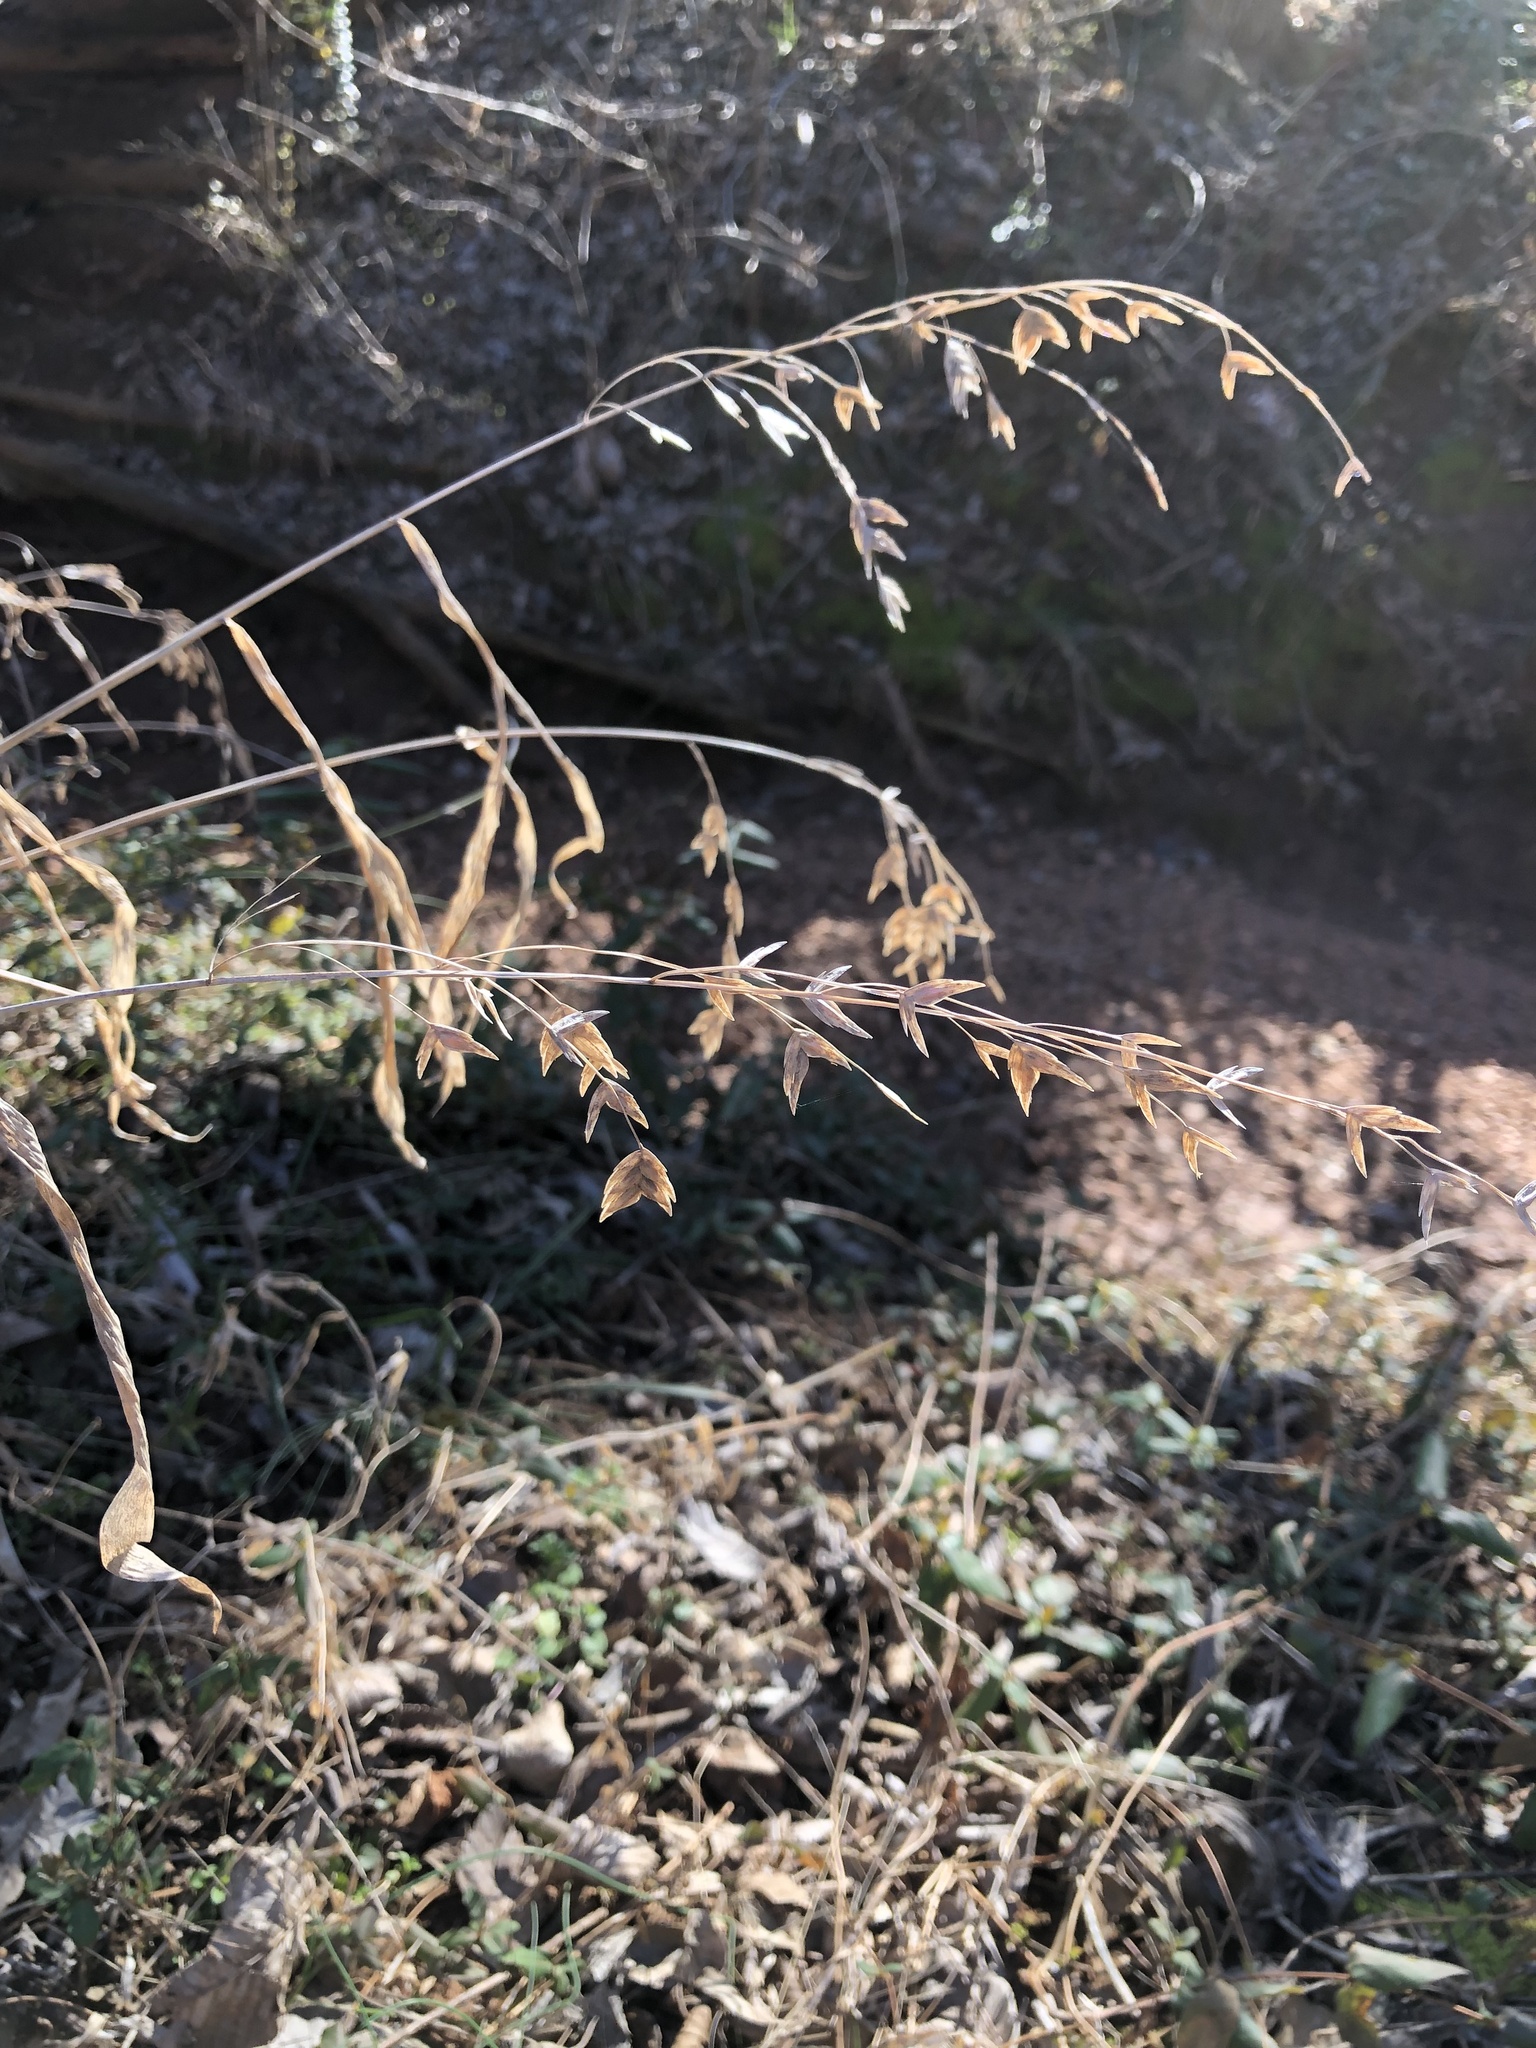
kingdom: Plantae
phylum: Tracheophyta
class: Liliopsida
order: Poales
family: Poaceae
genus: Chasmanthium
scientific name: Chasmanthium latifolium
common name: Broad-leaved chasmanthium
